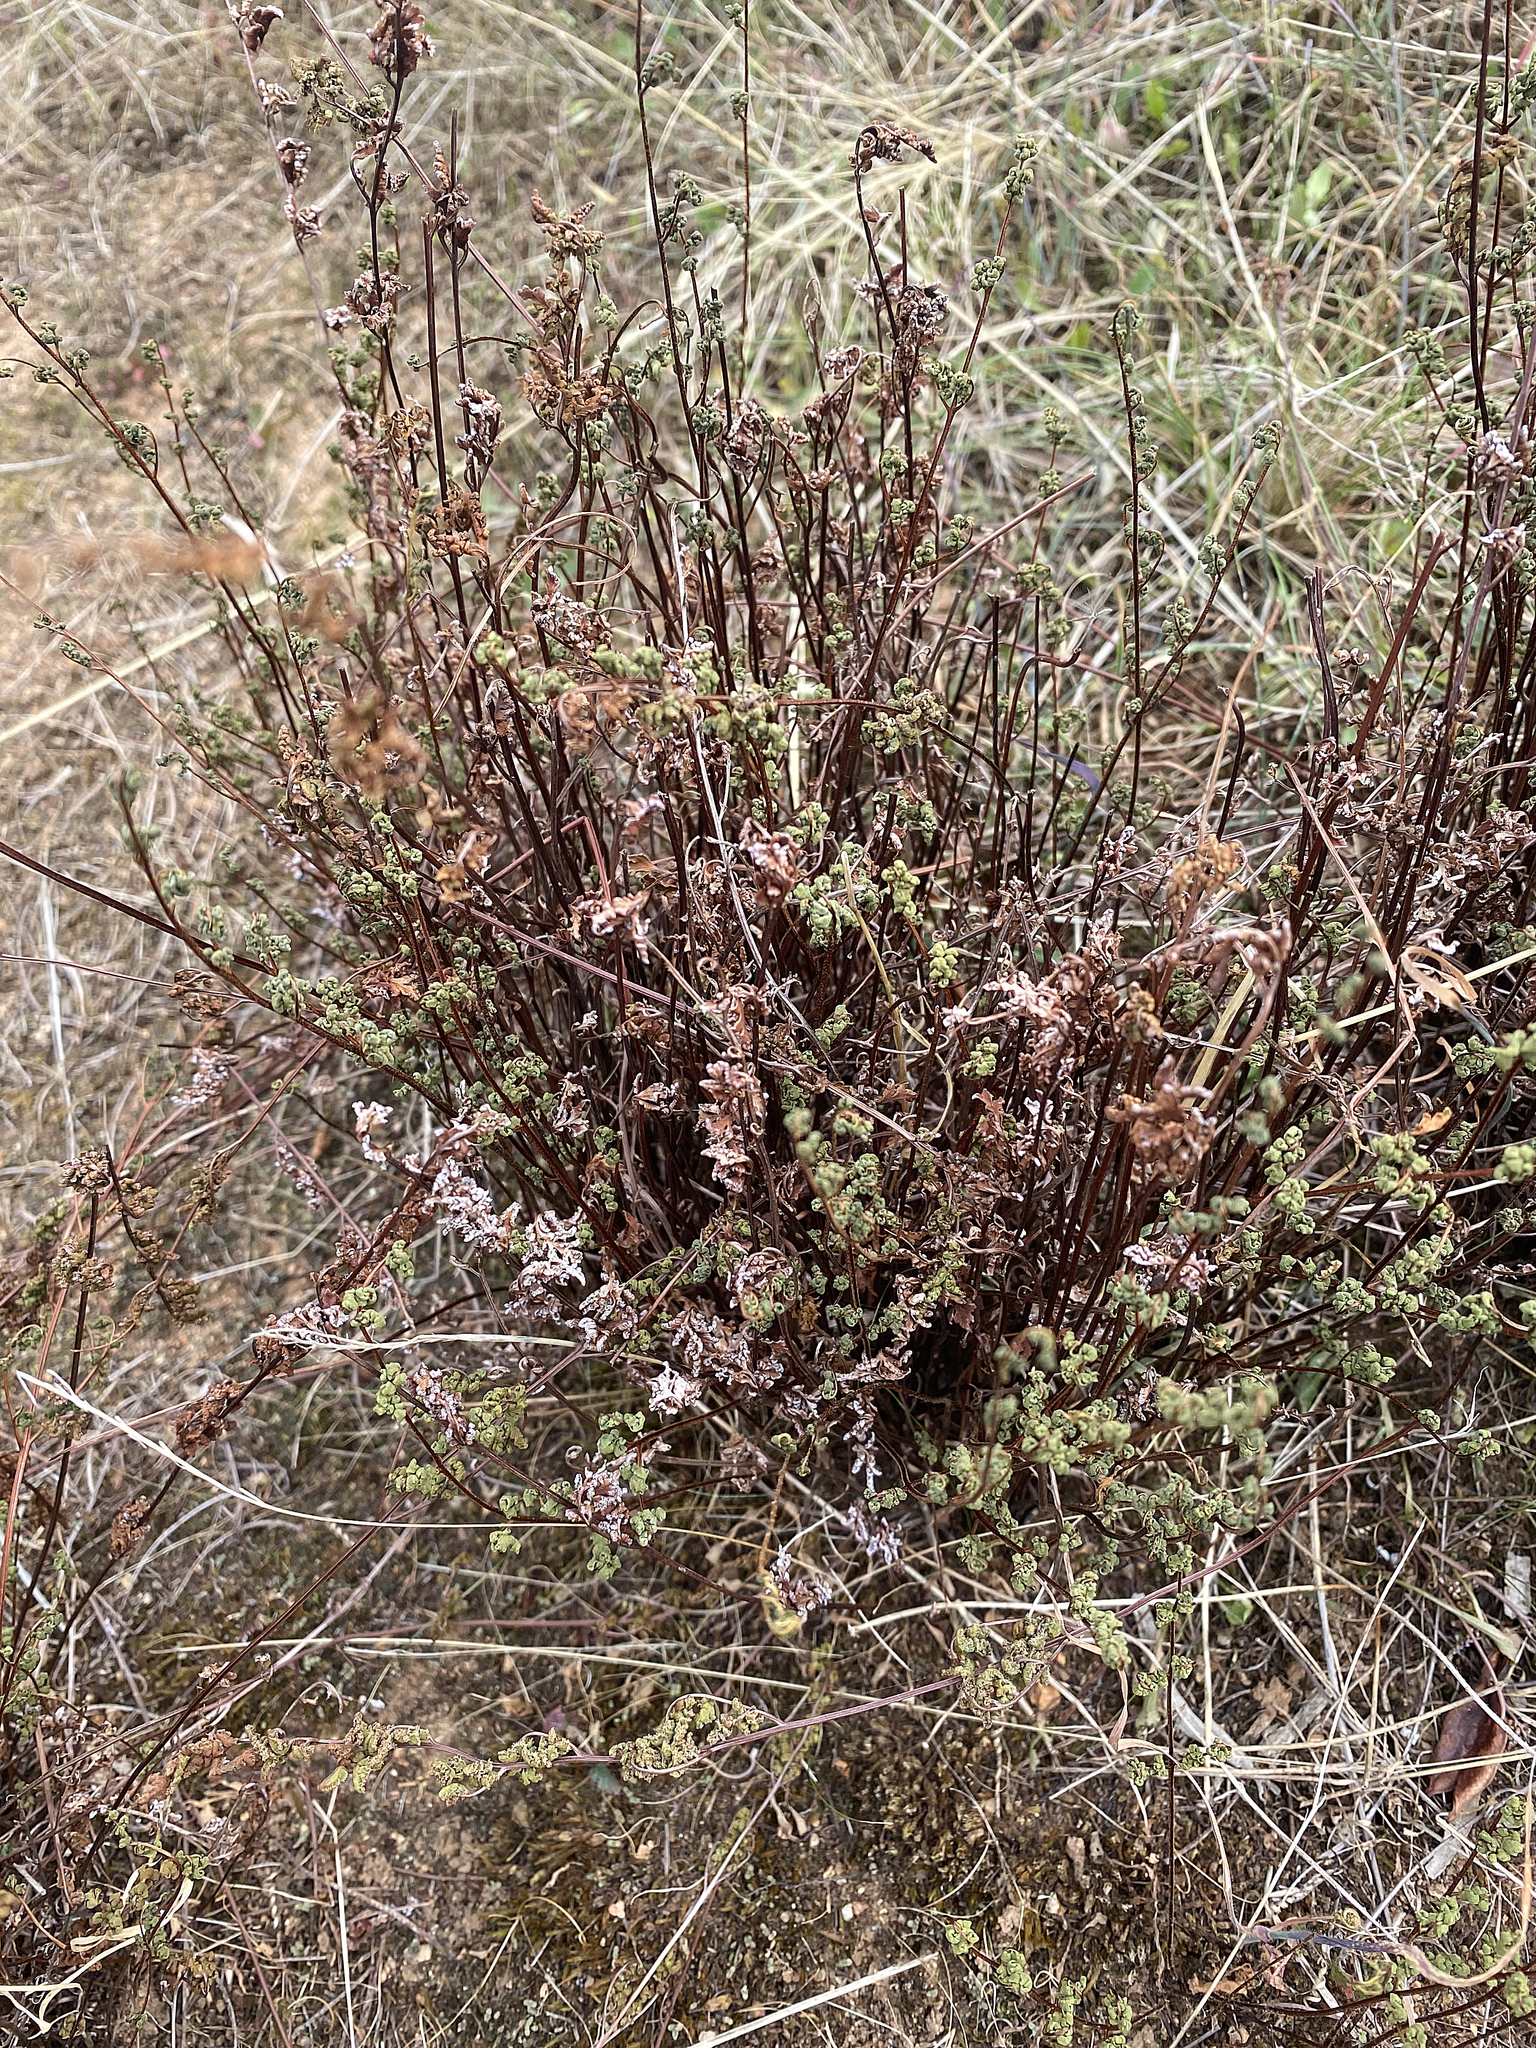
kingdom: Plantae
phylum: Tracheophyta
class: Polypodiopsida
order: Polypodiales
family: Pteridaceae
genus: Cheilanthes
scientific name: Cheilanthes sieberi
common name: Mulga fern
